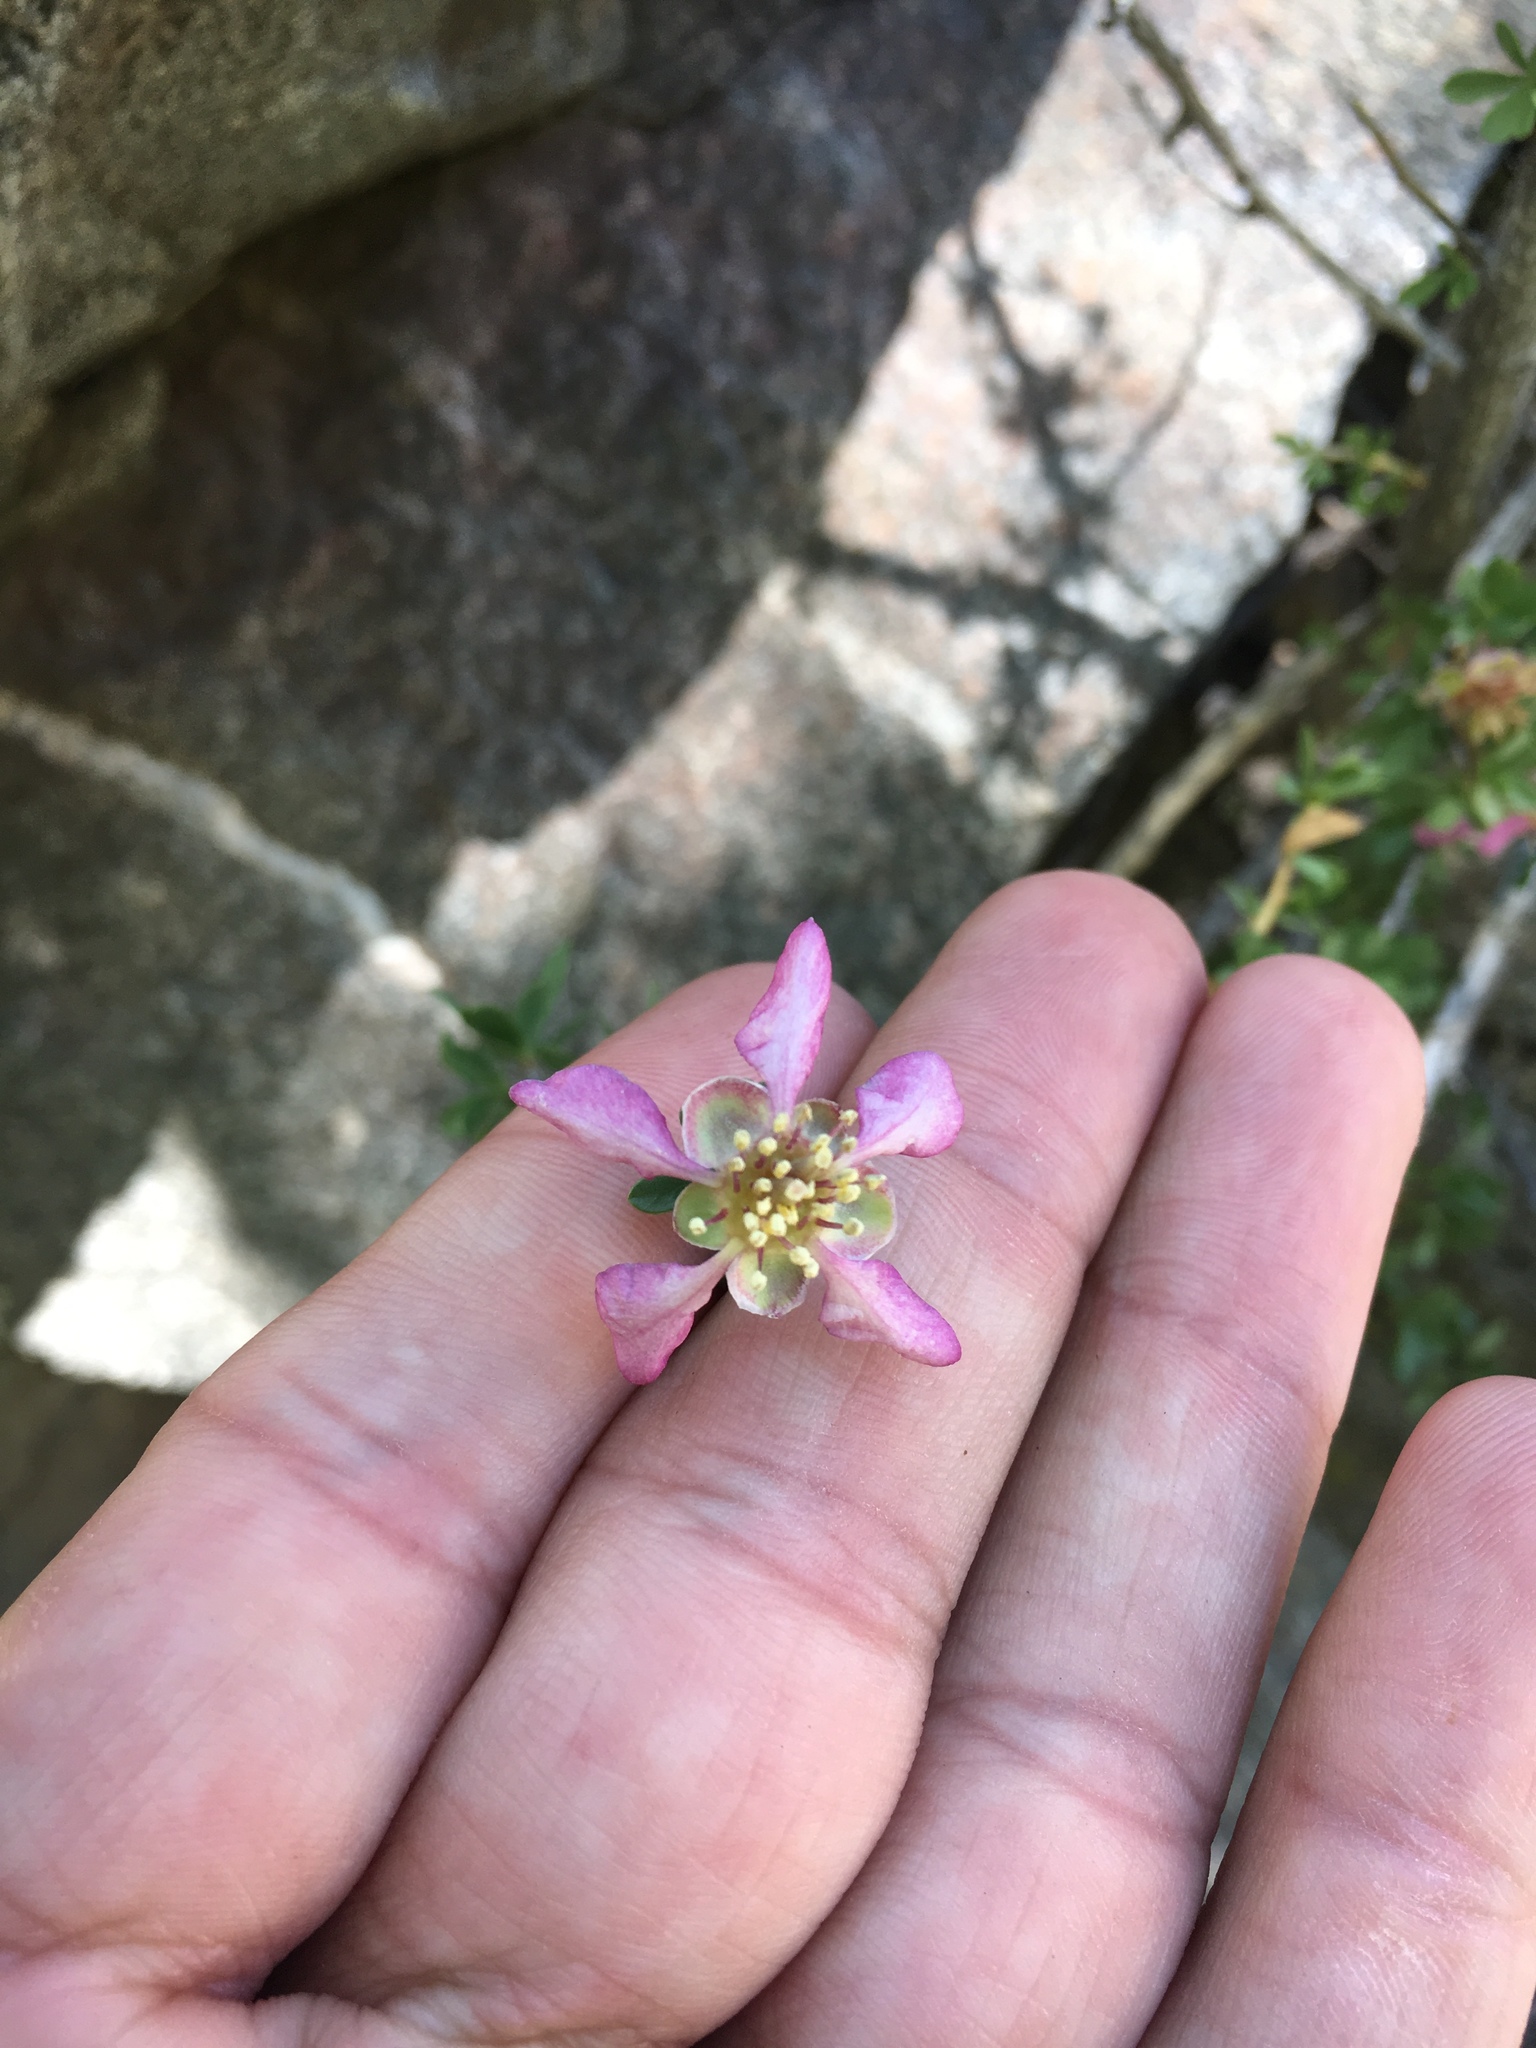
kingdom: Plantae
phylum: Tracheophyta
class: Magnoliopsida
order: Crossosomatales
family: Crossosomataceae
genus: Crossosoma
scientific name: Crossosoma bigelovii
